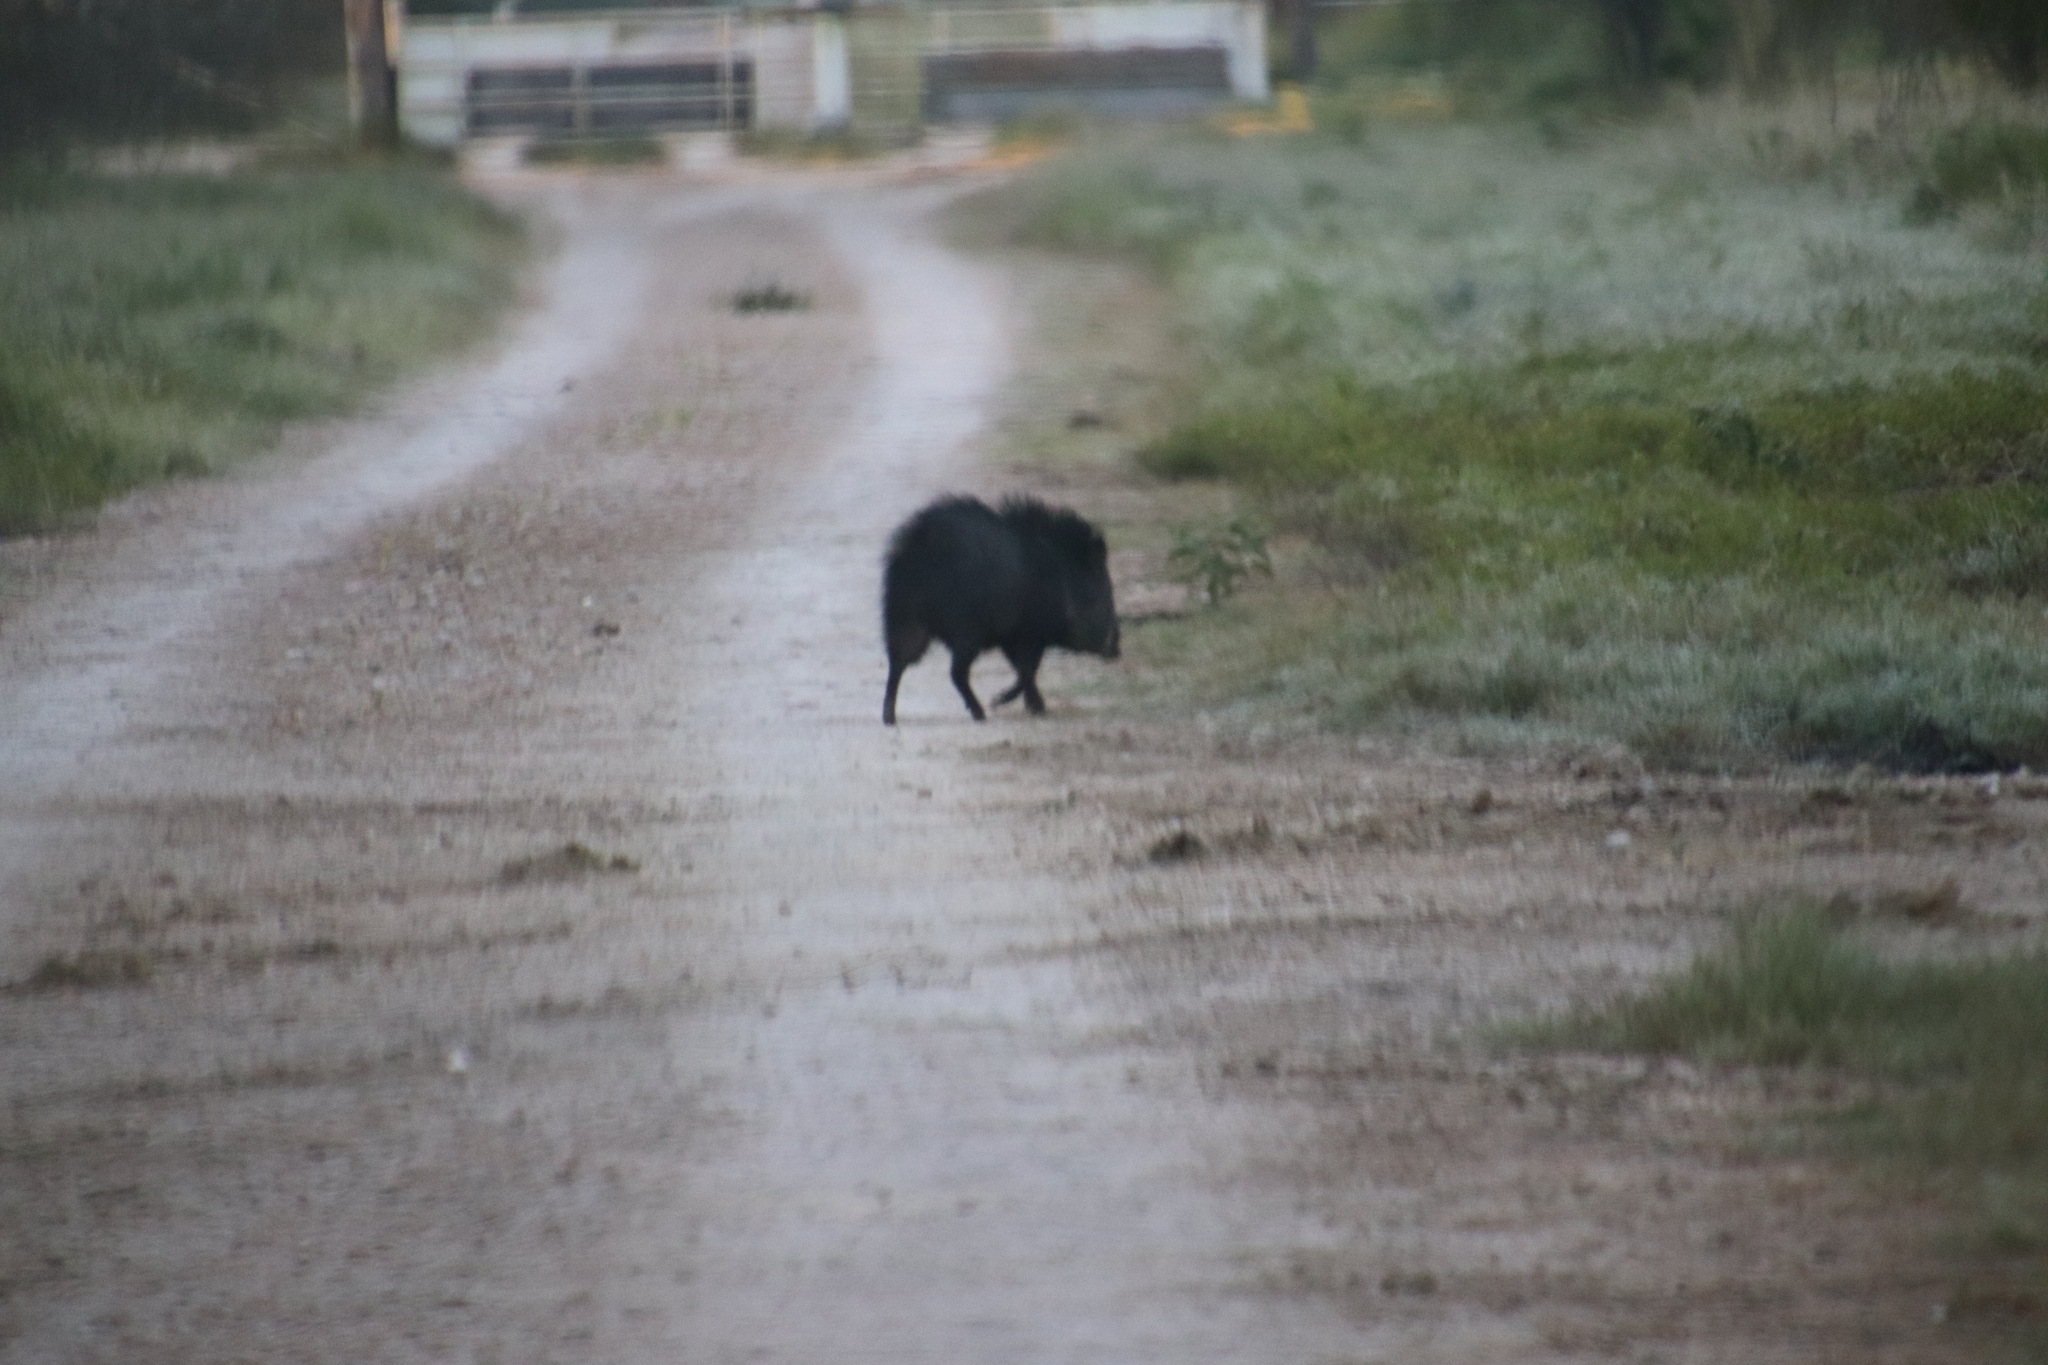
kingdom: Animalia
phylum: Chordata
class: Mammalia
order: Artiodactyla
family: Tayassuidae
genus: Pecari
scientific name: Pecari tajacu
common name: Collared peccary
